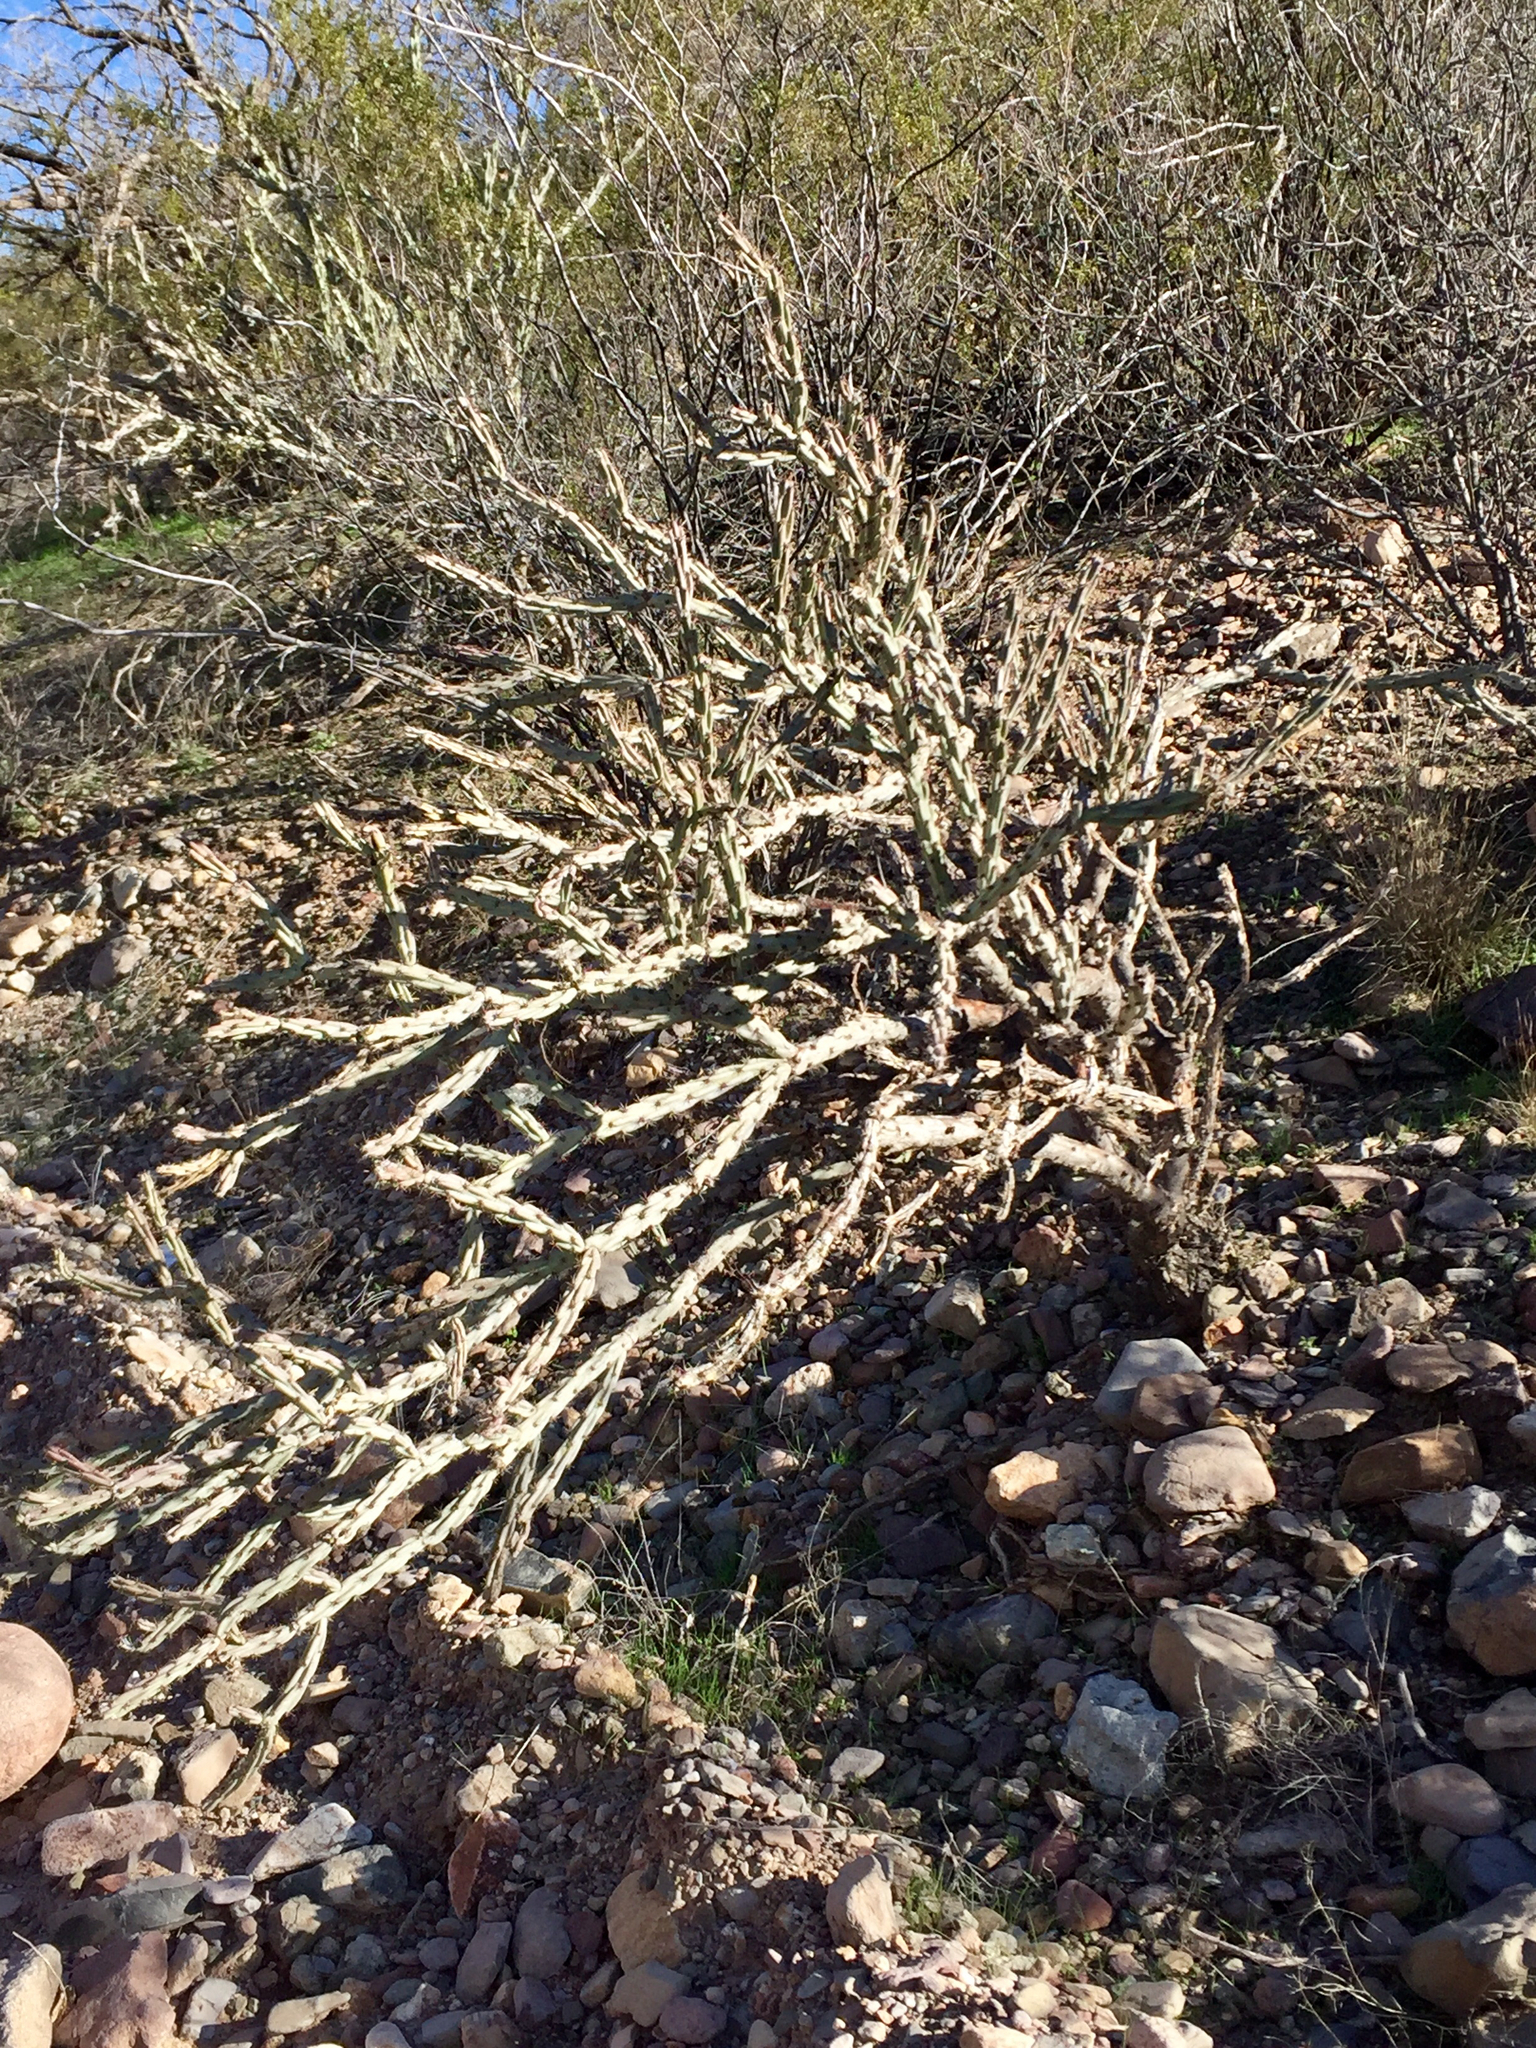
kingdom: Plantae
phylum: Tracheophyta
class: Magnoliopsida
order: Caryophyllales
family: Cactaceae
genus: Cylindropuntia
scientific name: Cylindropuntia acanthocarpa
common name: Buckhorn cholla
